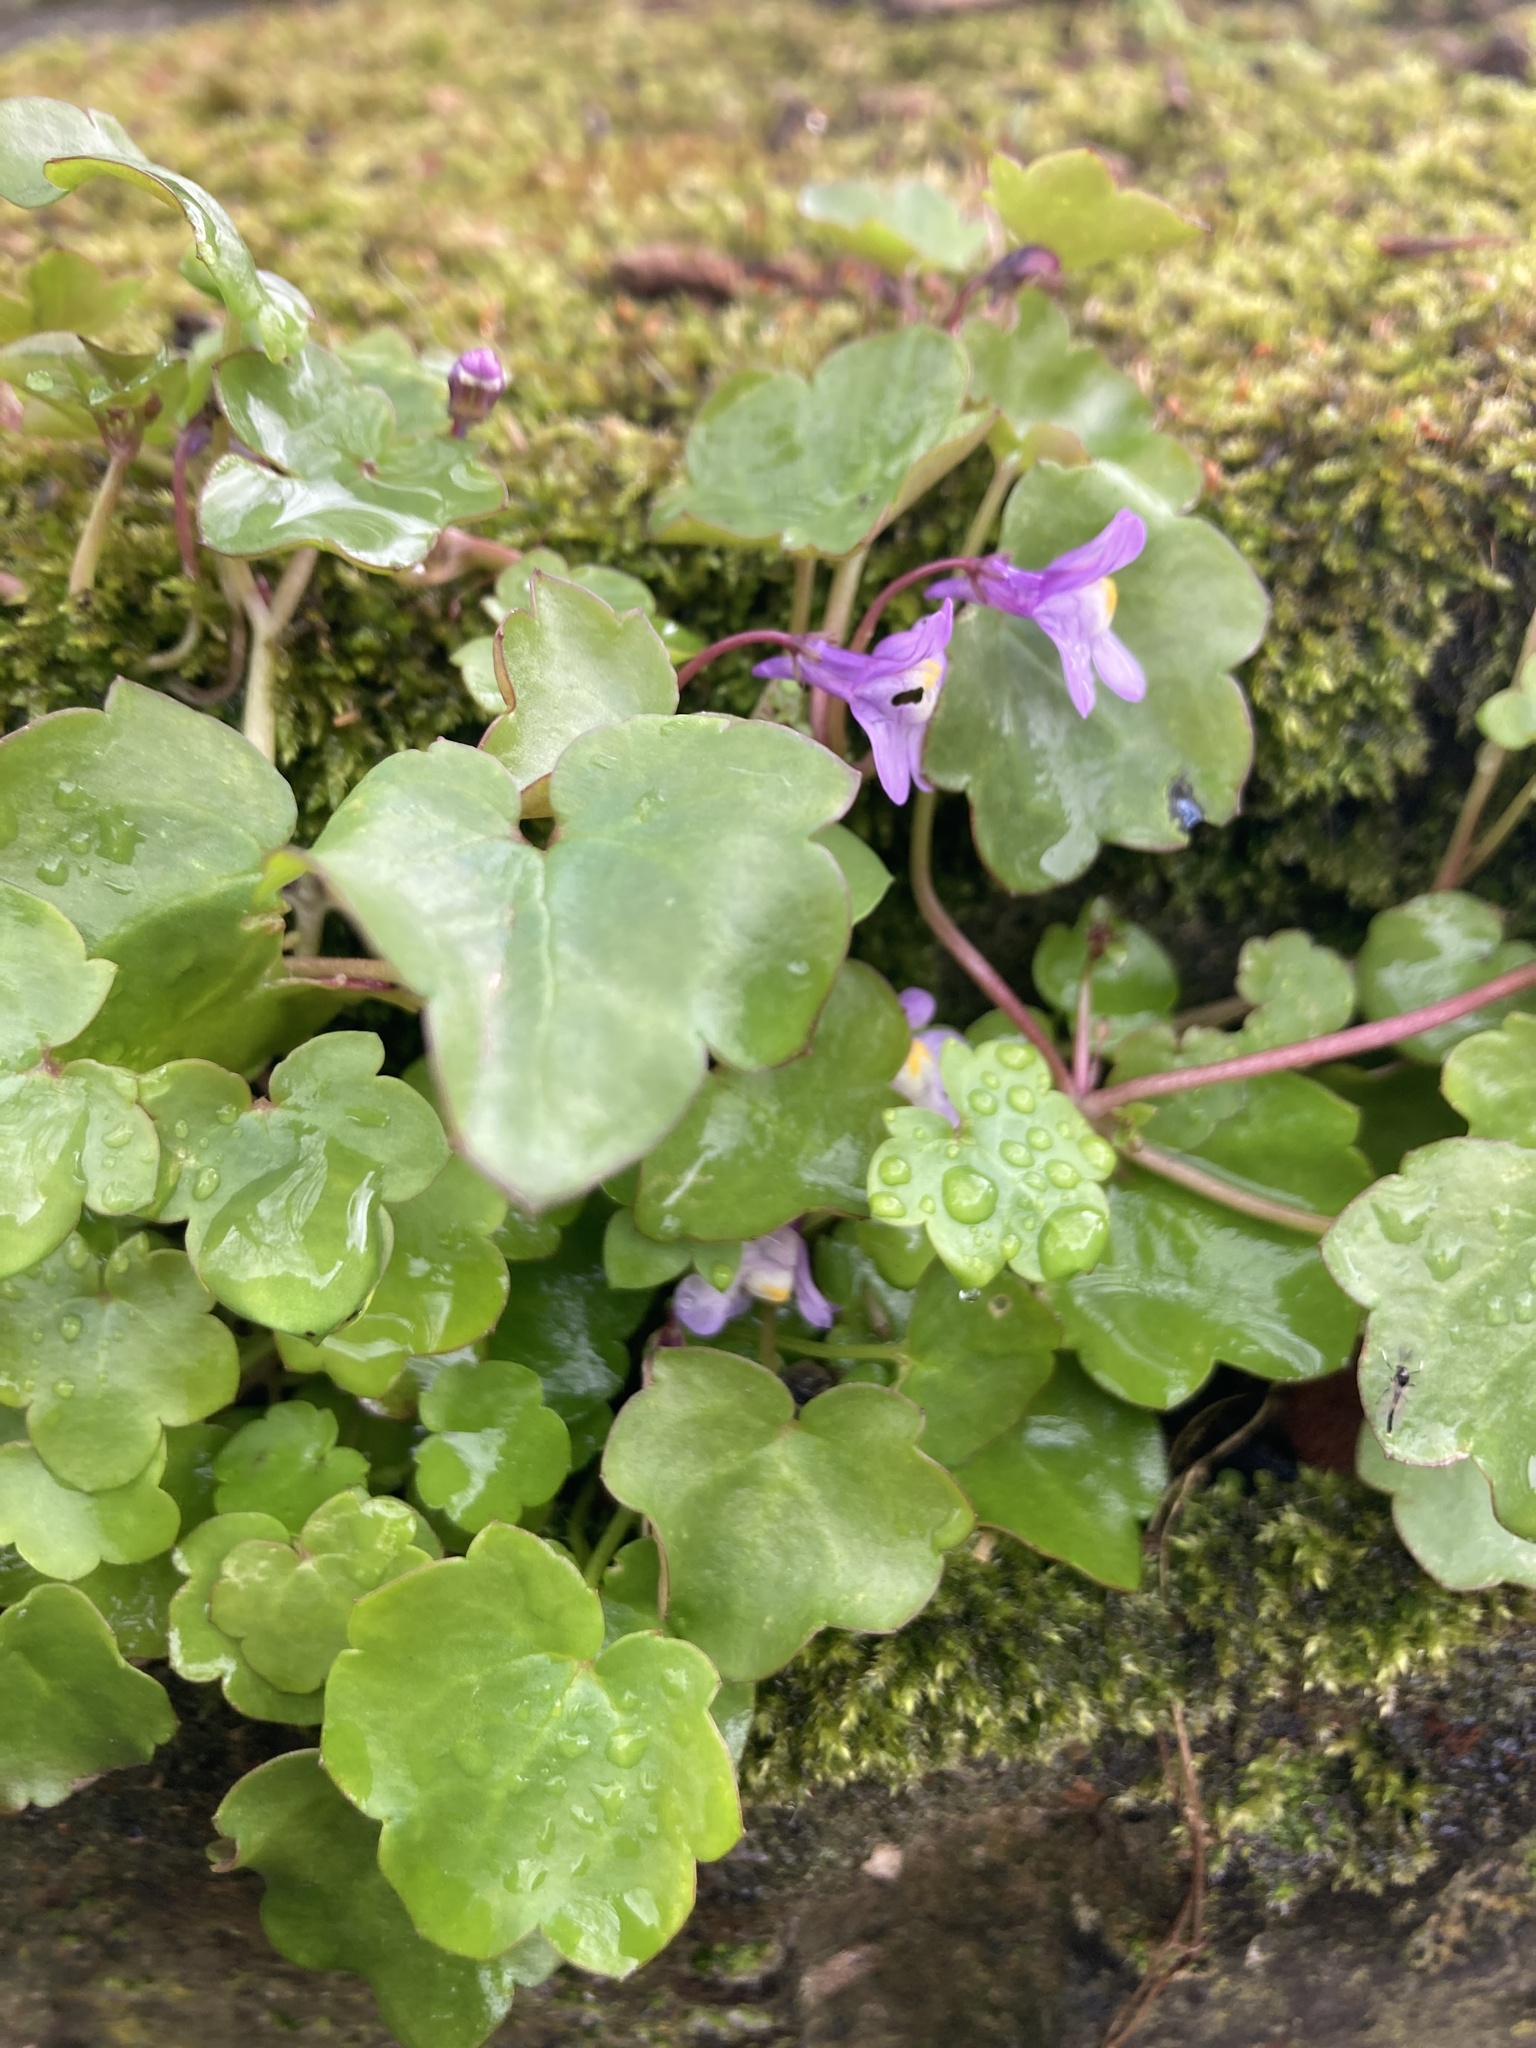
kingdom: Plantae
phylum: Tracheophyta
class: Magnoliopsida
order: Lamiales
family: Plantaginaceae
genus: Cymbalaria
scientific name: Cymbalaria muralis
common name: Ivy-leaved toadflax
